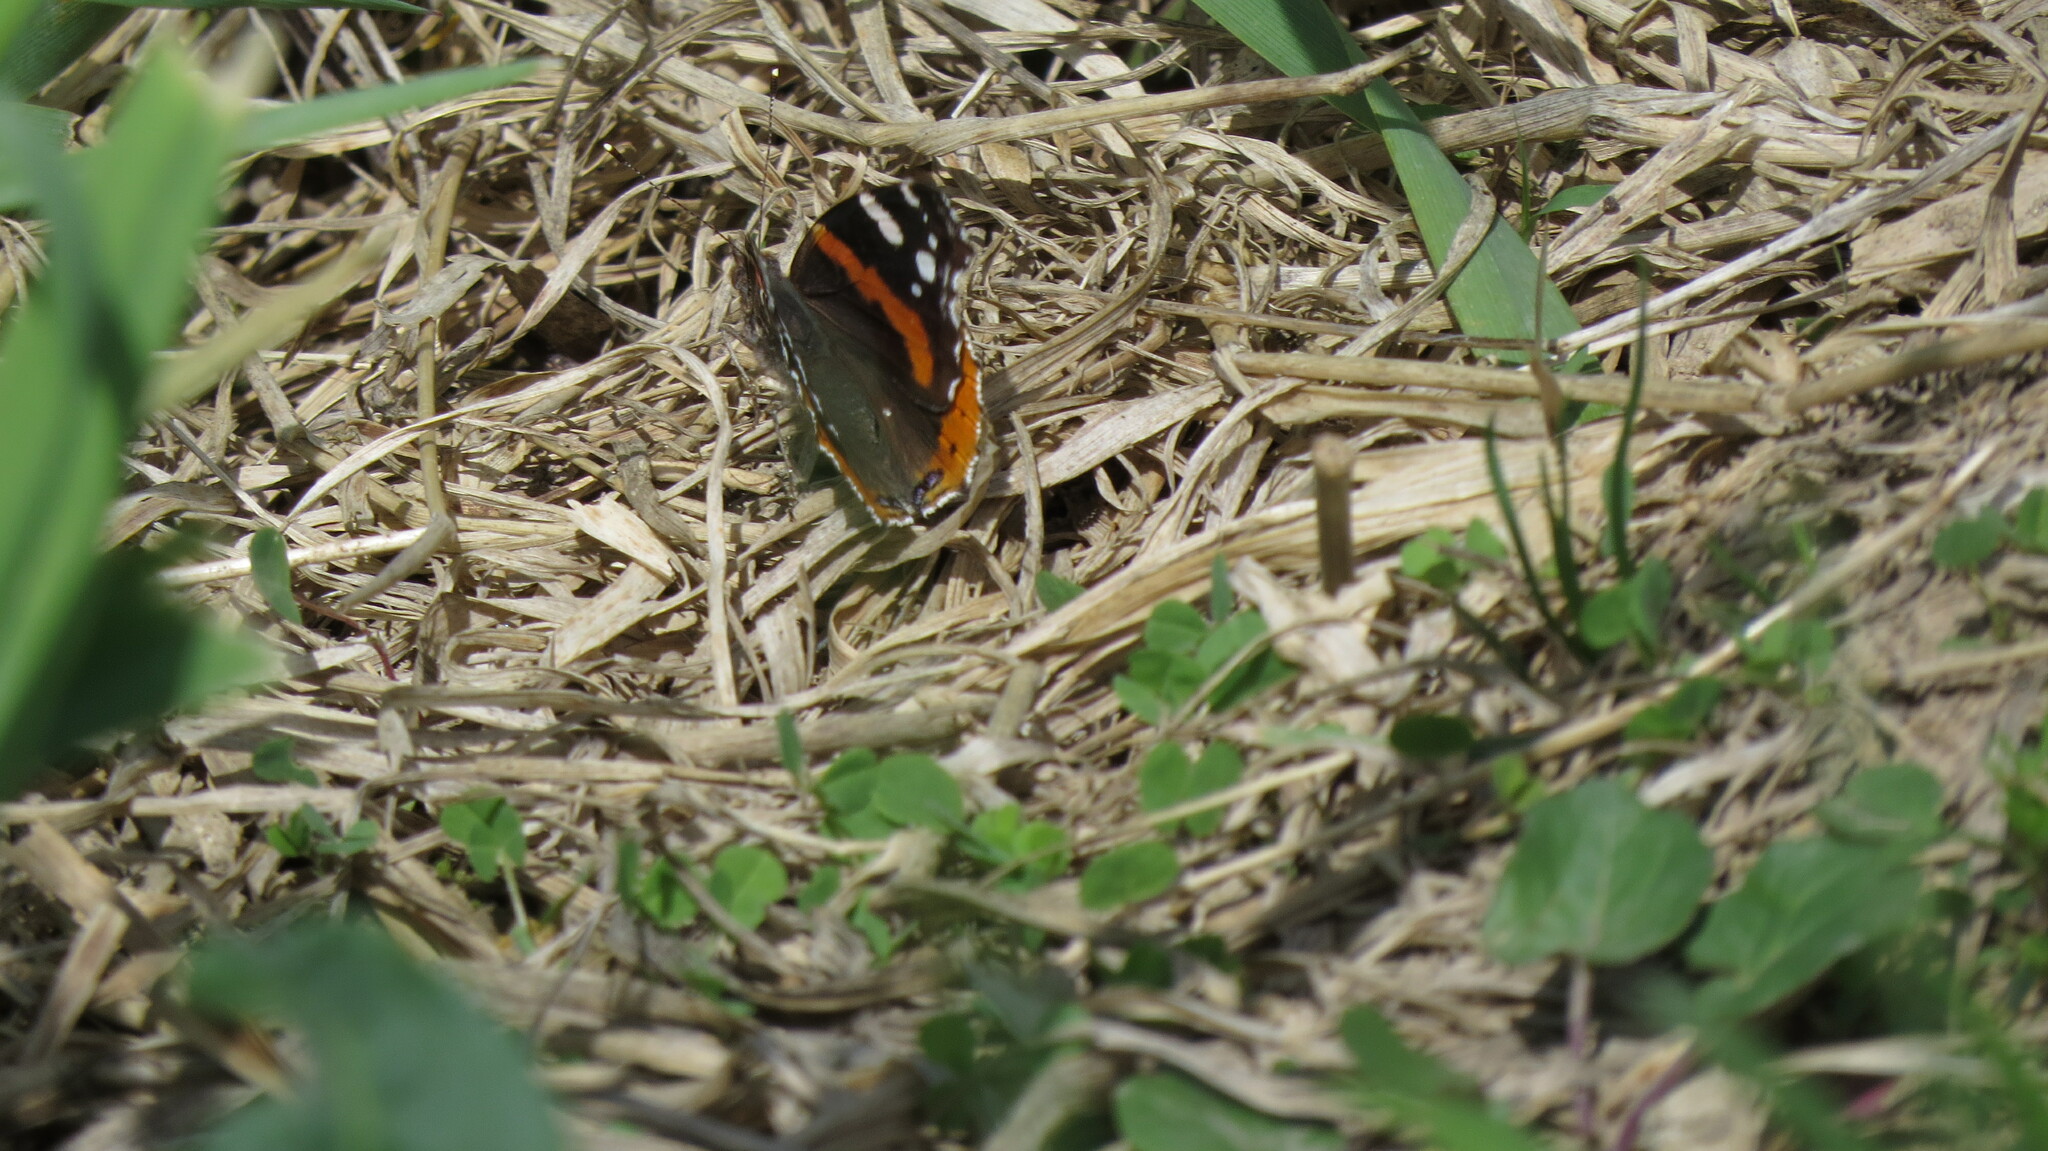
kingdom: Animalia
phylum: Arthropoda
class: Insecta
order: Lepidoptera
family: Nymphalidae
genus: Vanessa
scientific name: Vanessa atalanta
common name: Red admiral
